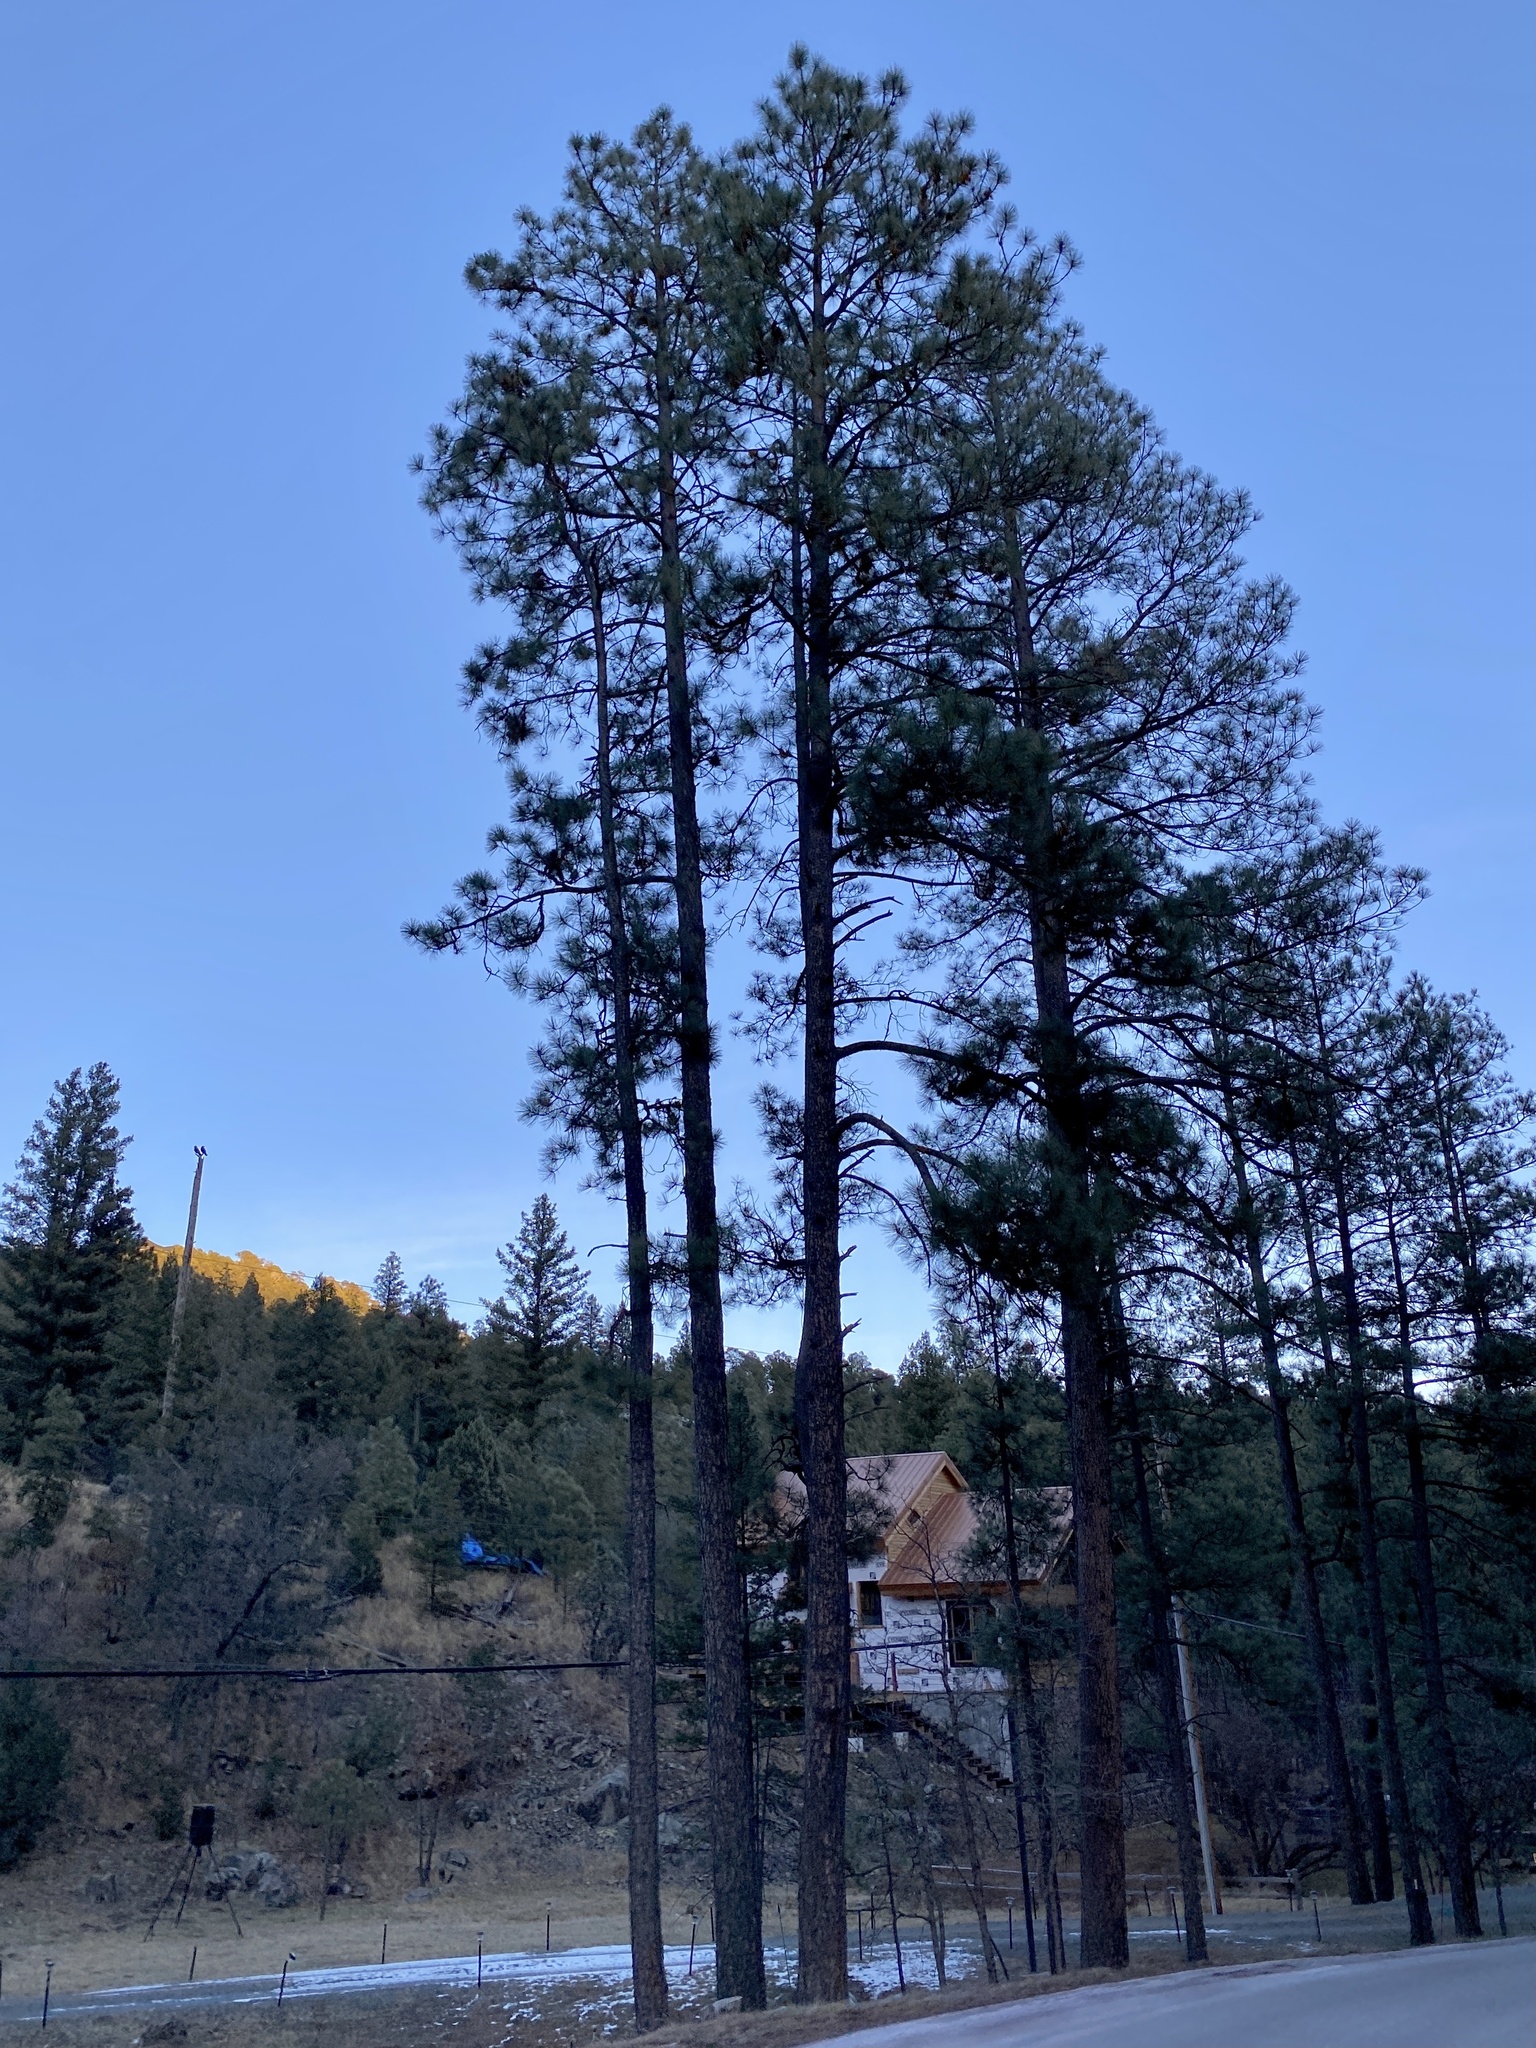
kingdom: Plantae
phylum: Tracheophyta
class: Pinopsida
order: Pinales
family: Pinaceae
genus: Pinus
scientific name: Pinus ponderosa
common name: Western yellow-pine
